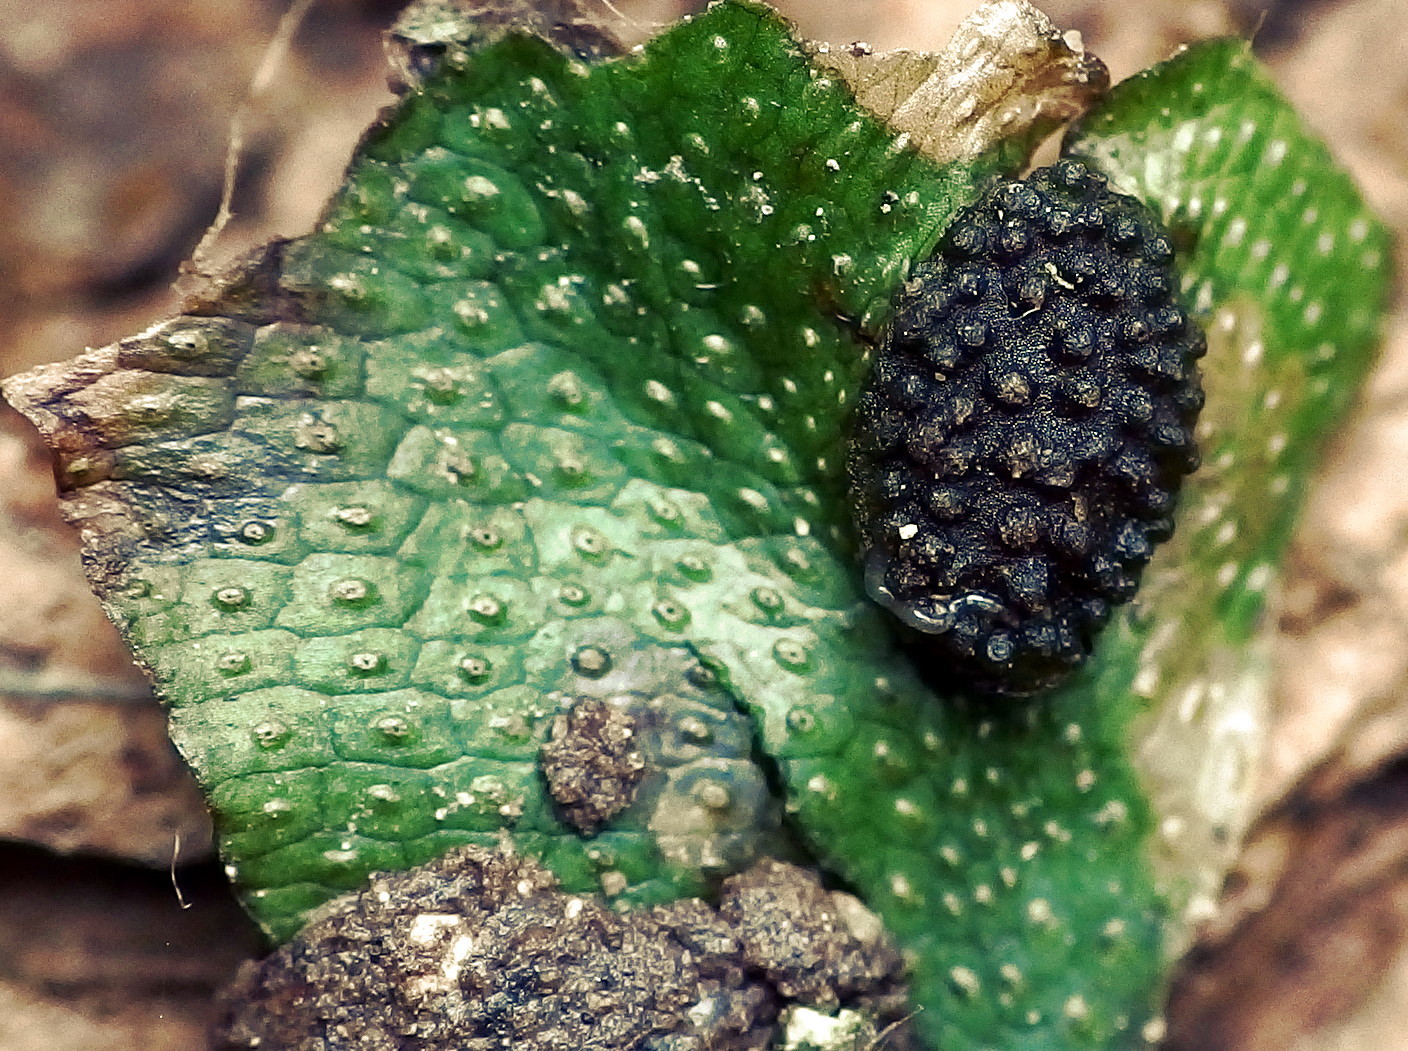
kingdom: Plantae
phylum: Marchantiophyta
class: Marchantiopsida
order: Marchantiales
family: Conocephalaceae
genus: Conocephalum
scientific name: Conocephalum conicum
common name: Great scented liverwort
